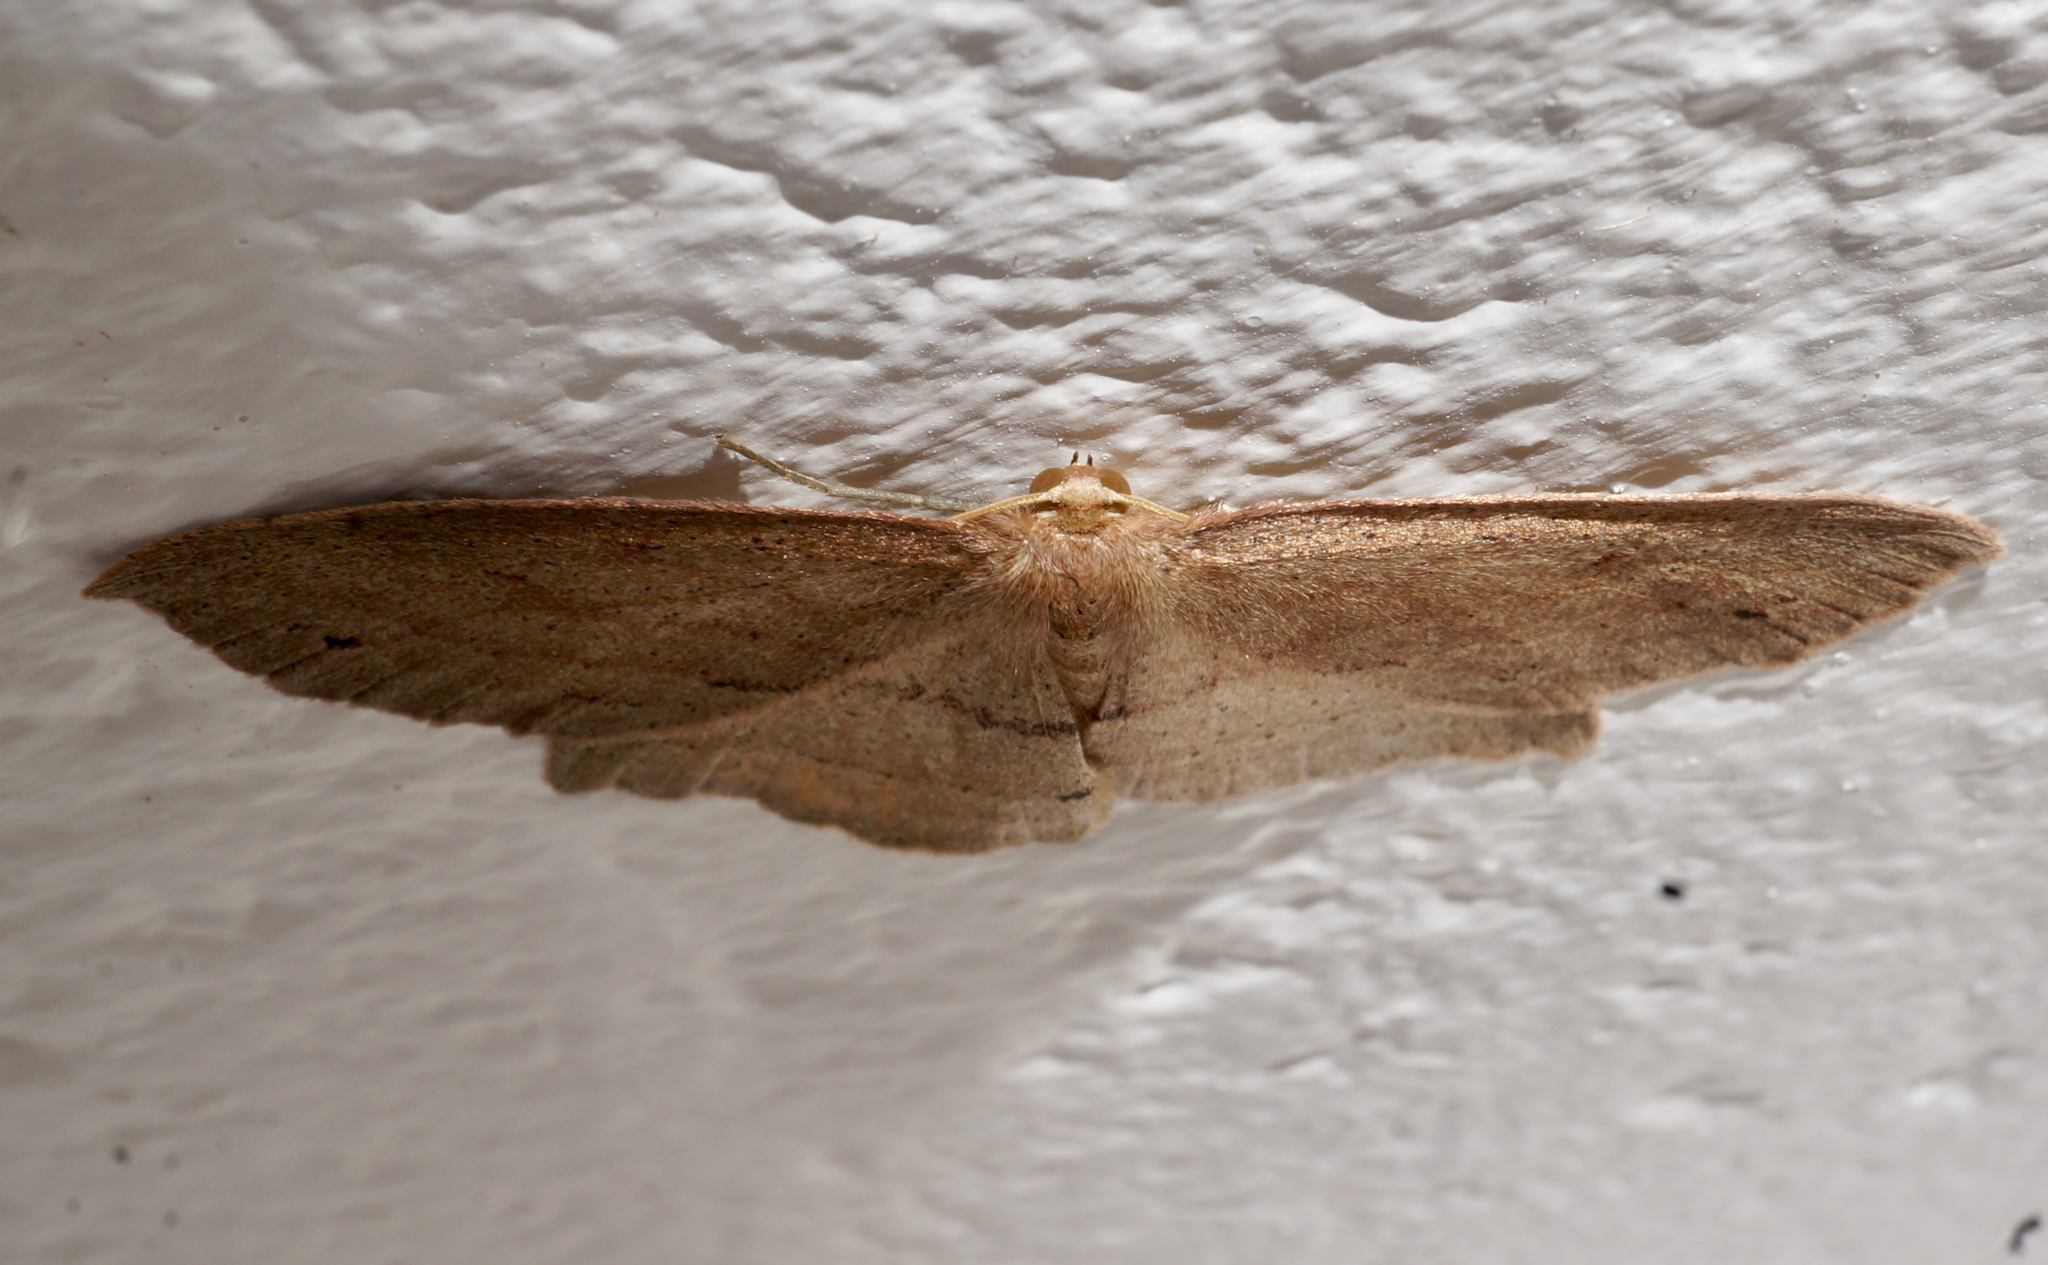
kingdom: Animalia
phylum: Arthropoda
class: Insecta
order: Lepidoptera
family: Geometridae
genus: Xyridacma
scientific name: Xyridacma veronicae
